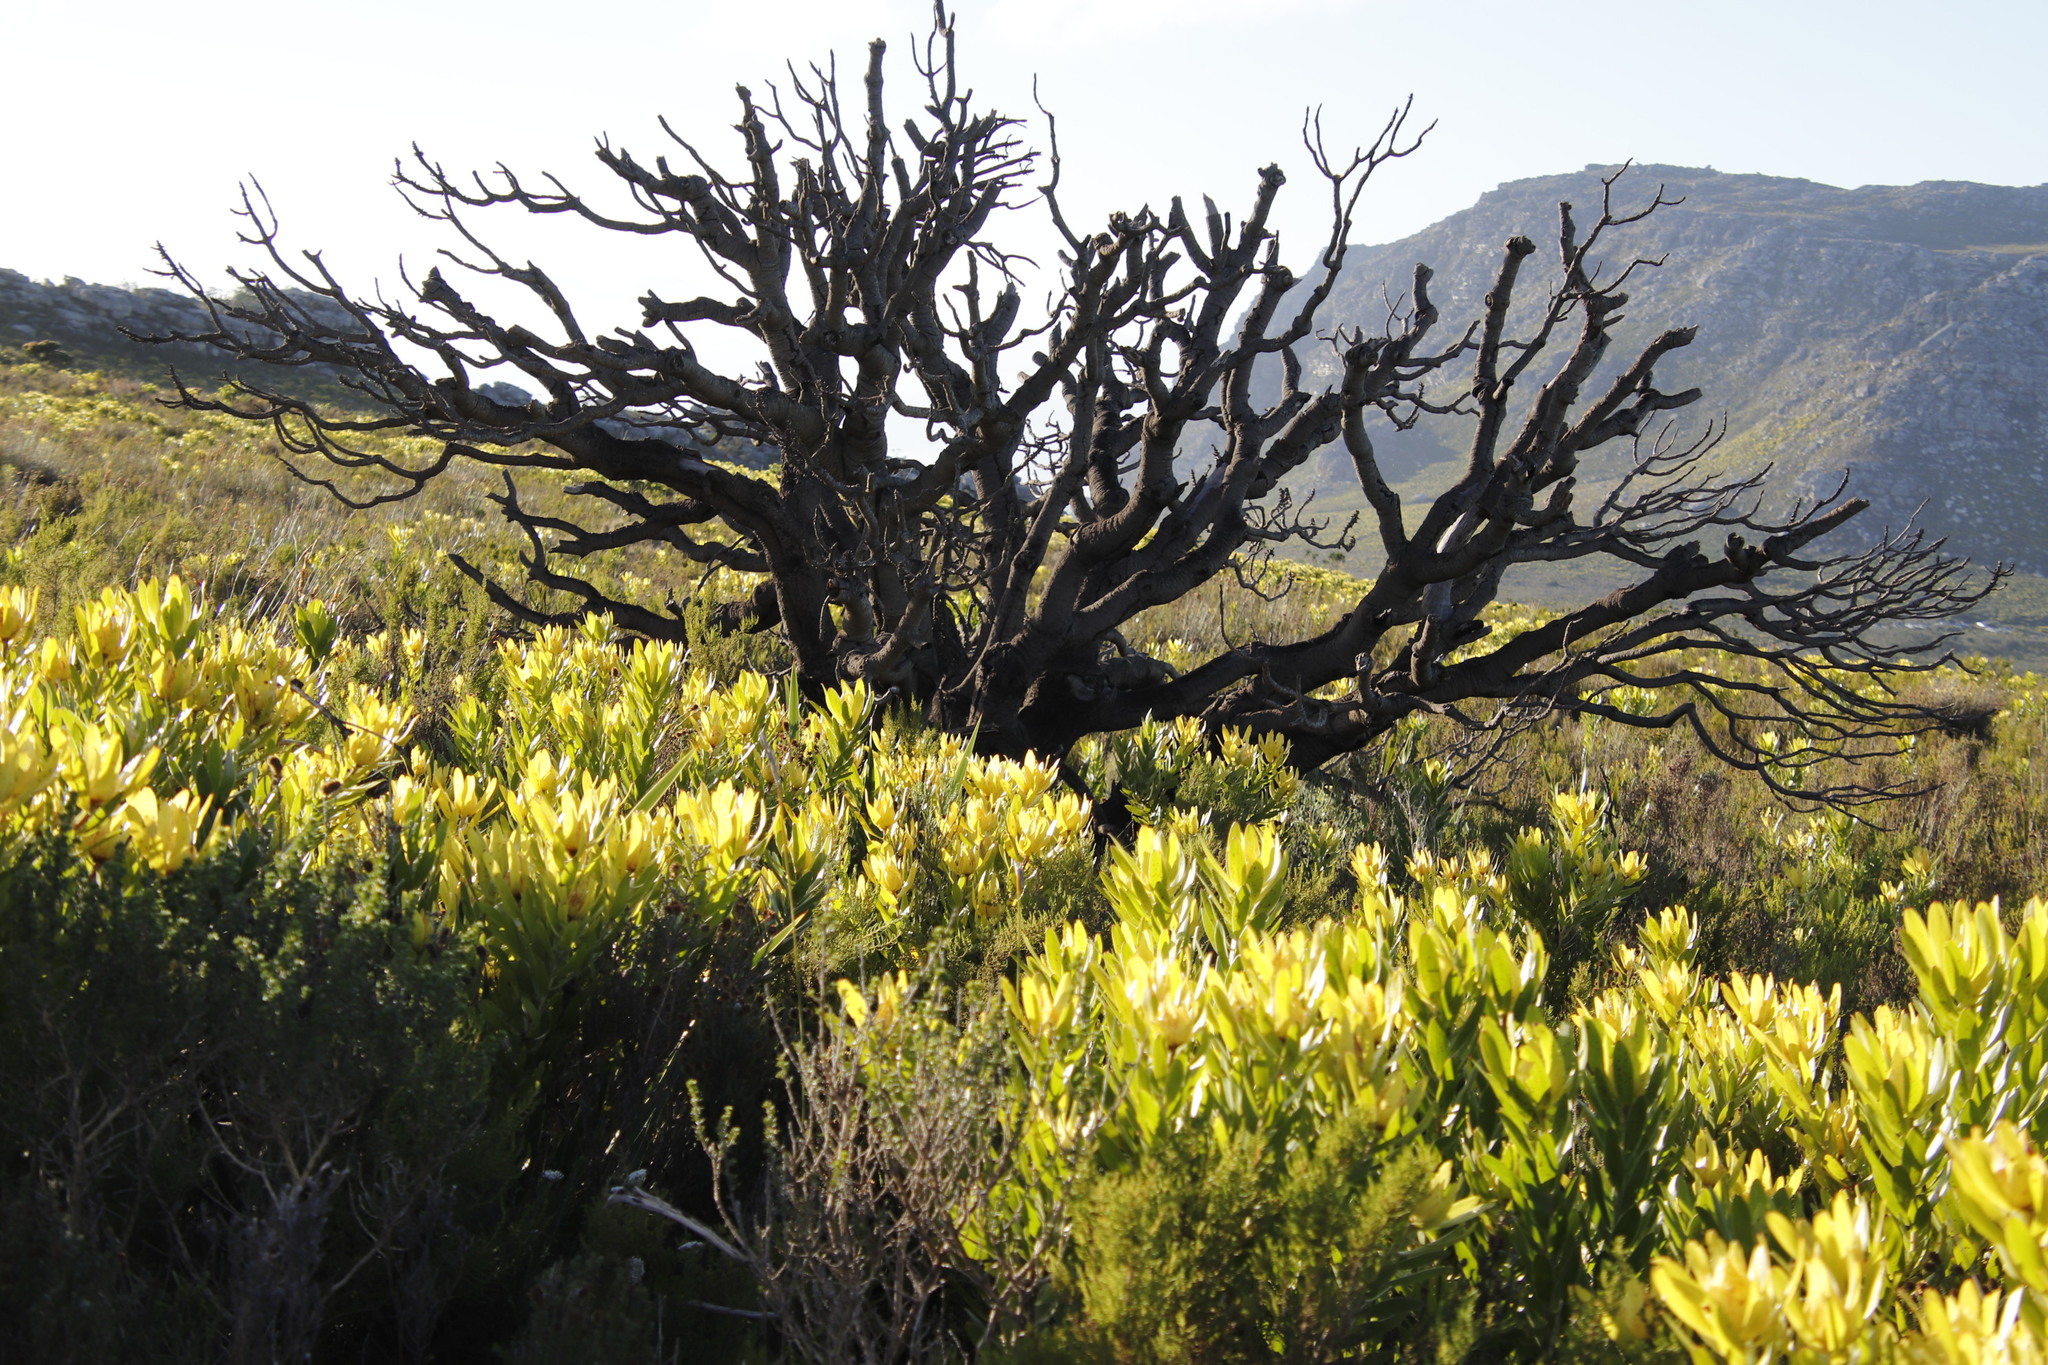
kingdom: Plantae
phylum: Tracheophyta
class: Magnoliopsida
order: Proteales
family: Proteaceae
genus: Leucadendron
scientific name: Leucadendron laureolum
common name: Golden sunshinebush
